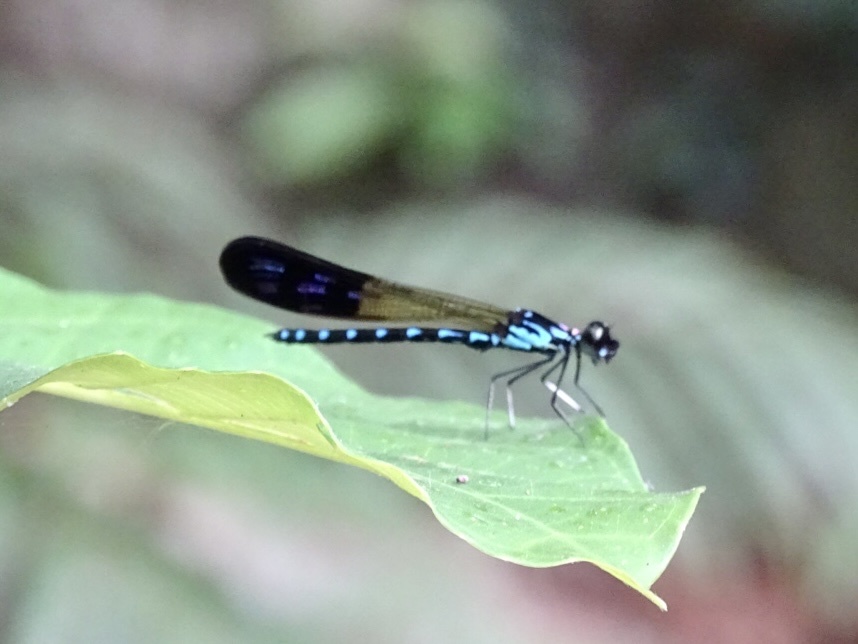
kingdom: Animalia
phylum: Arthropoda
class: Insecta
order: Odonata
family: Chlorocyphidae
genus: Heliocypha
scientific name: Heliocypha perforata
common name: Common blue jewel
